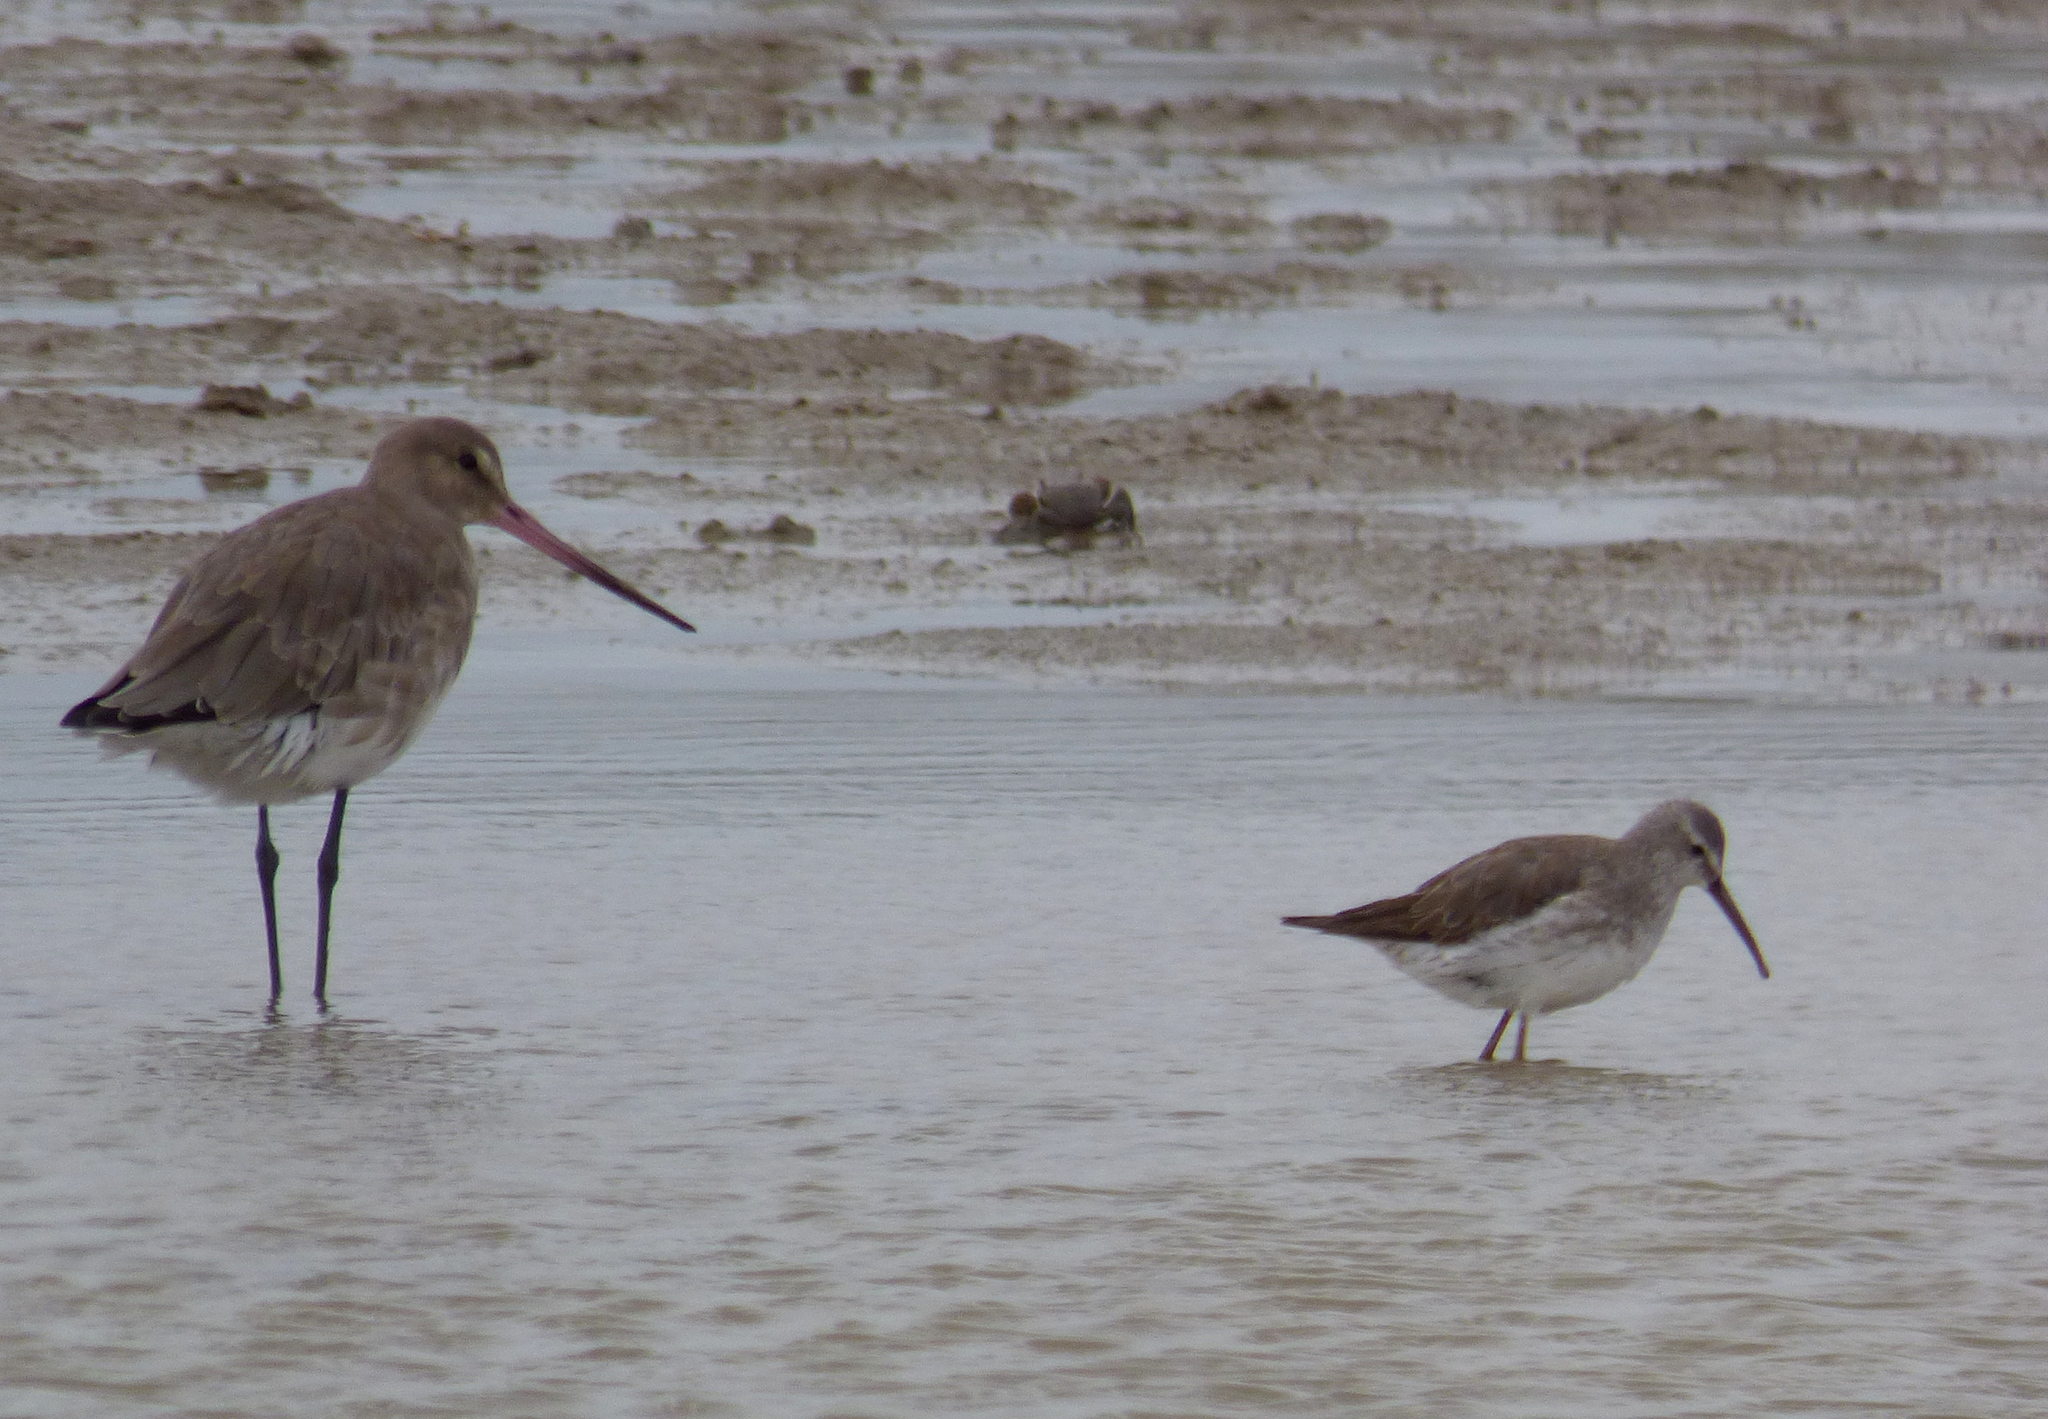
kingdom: Animalia
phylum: Chordata
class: Aves
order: Charadriiformes
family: Scolopacidae
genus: Calidris
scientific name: Calidris himantopus
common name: Stilt sandpiper
